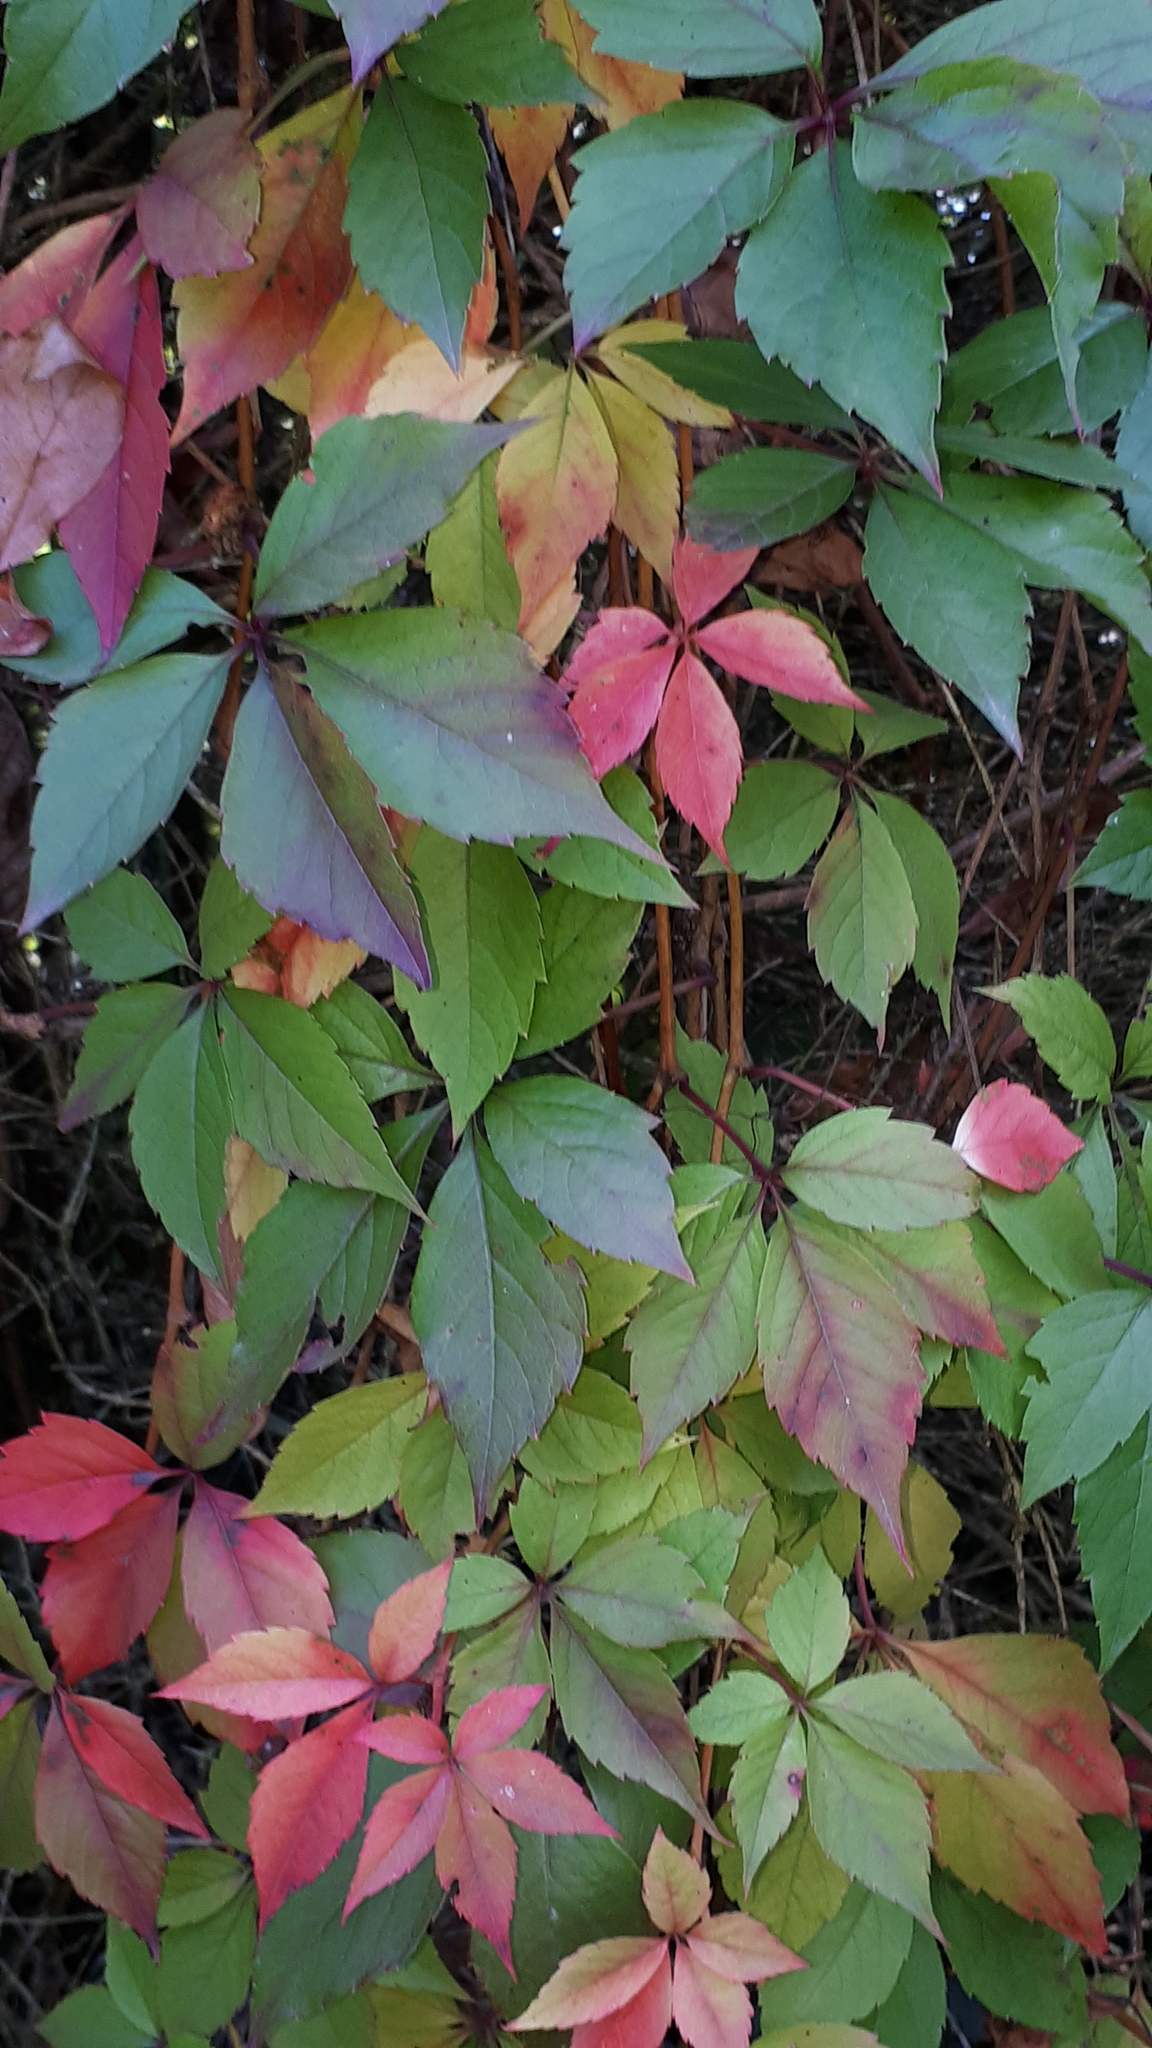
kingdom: Plantae
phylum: Tracheophyta
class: Magnoliopsida
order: Vitales
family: Vitaceae
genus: Parthenocissus
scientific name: Parthenocissus quinquefolia
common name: Virginia-creeper
